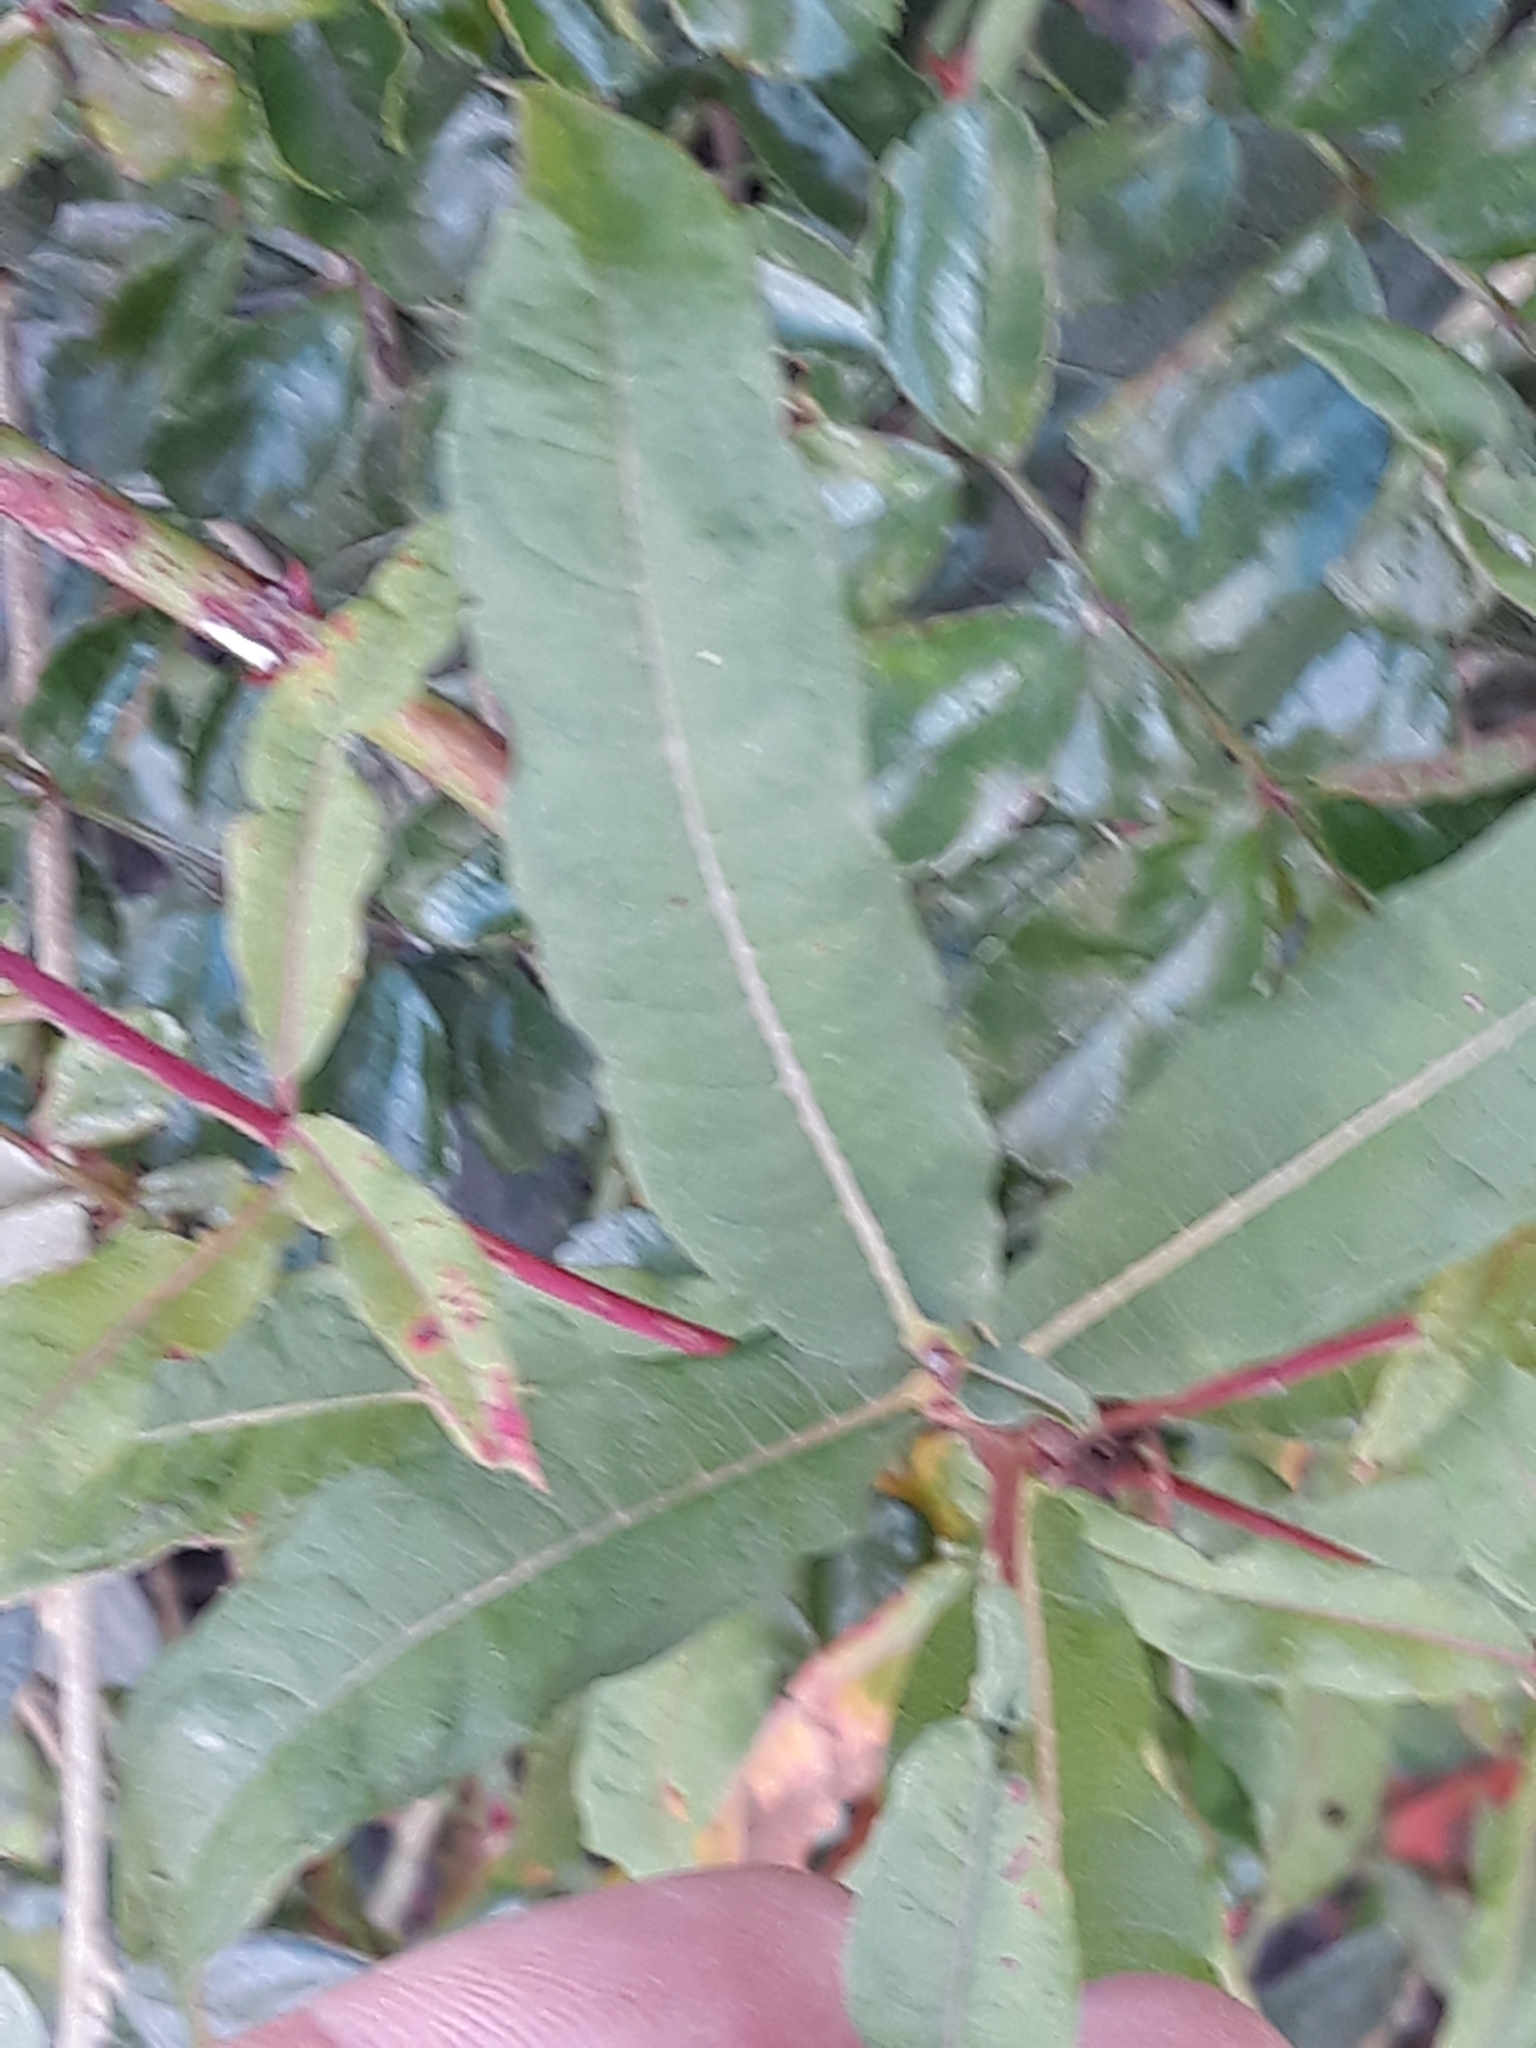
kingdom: Plantae
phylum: Tracheophyta
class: Magnoliopsida
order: Myrtales
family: Onagraceae
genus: Chamaenerion
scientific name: Chamaenerion angustifolium
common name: Fireweed
